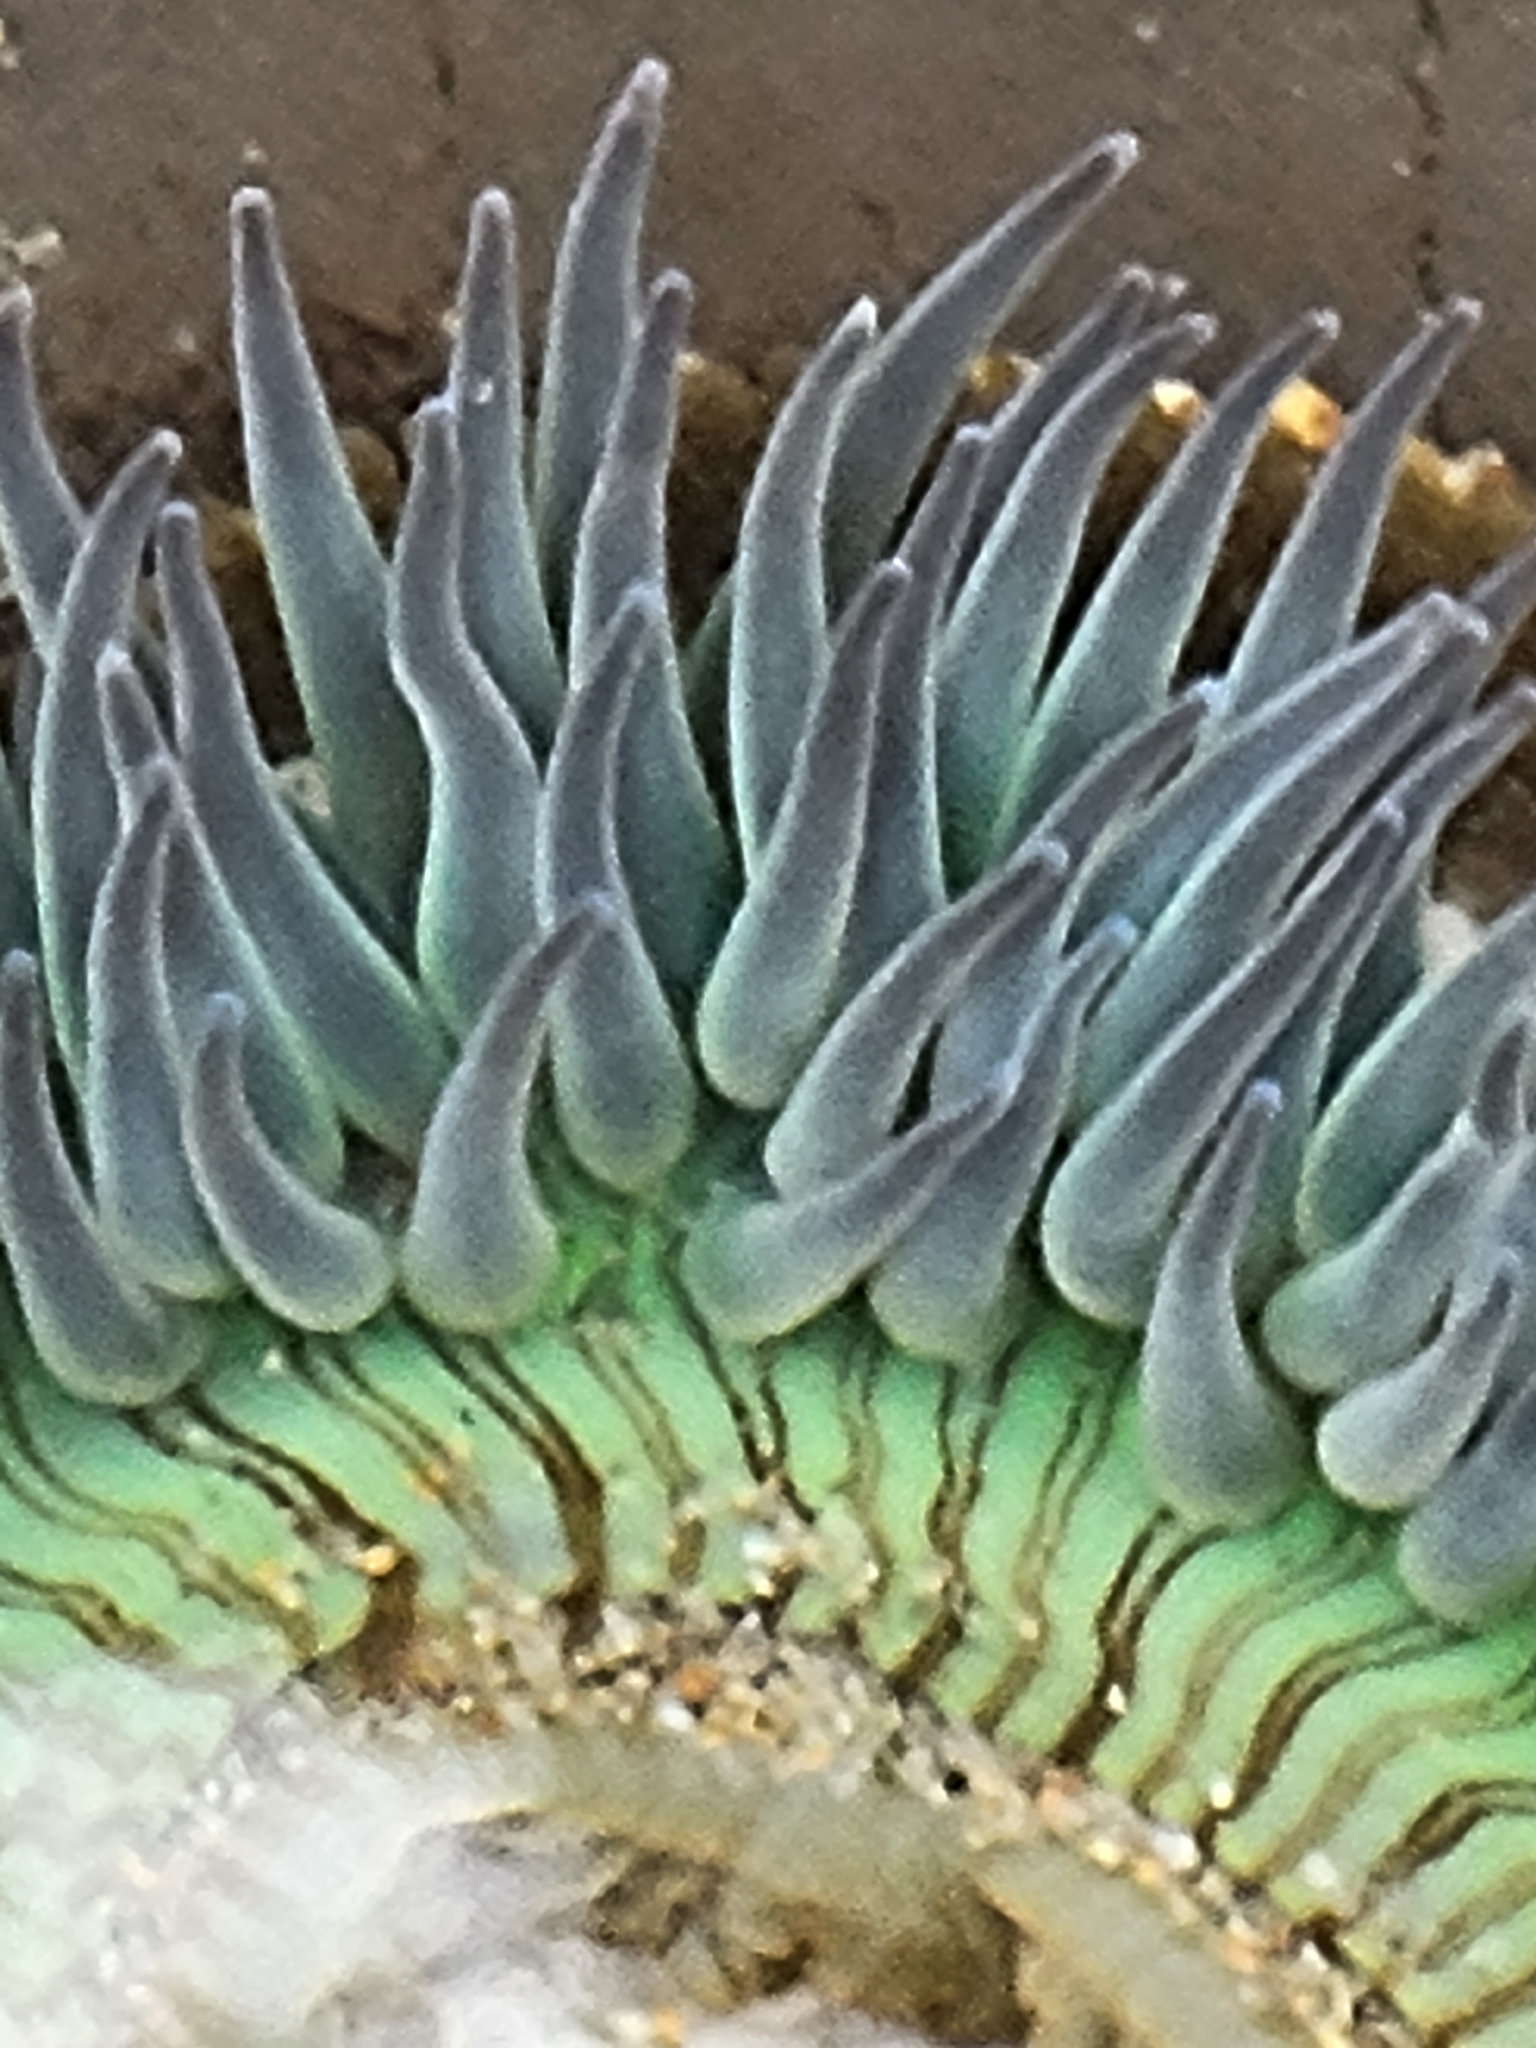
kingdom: Animalia
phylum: Cnidaria
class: Anthozoa
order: Actiniaria
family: Actiniidae
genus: Anthopleura
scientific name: Anthopleura sola
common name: Sun anemone
